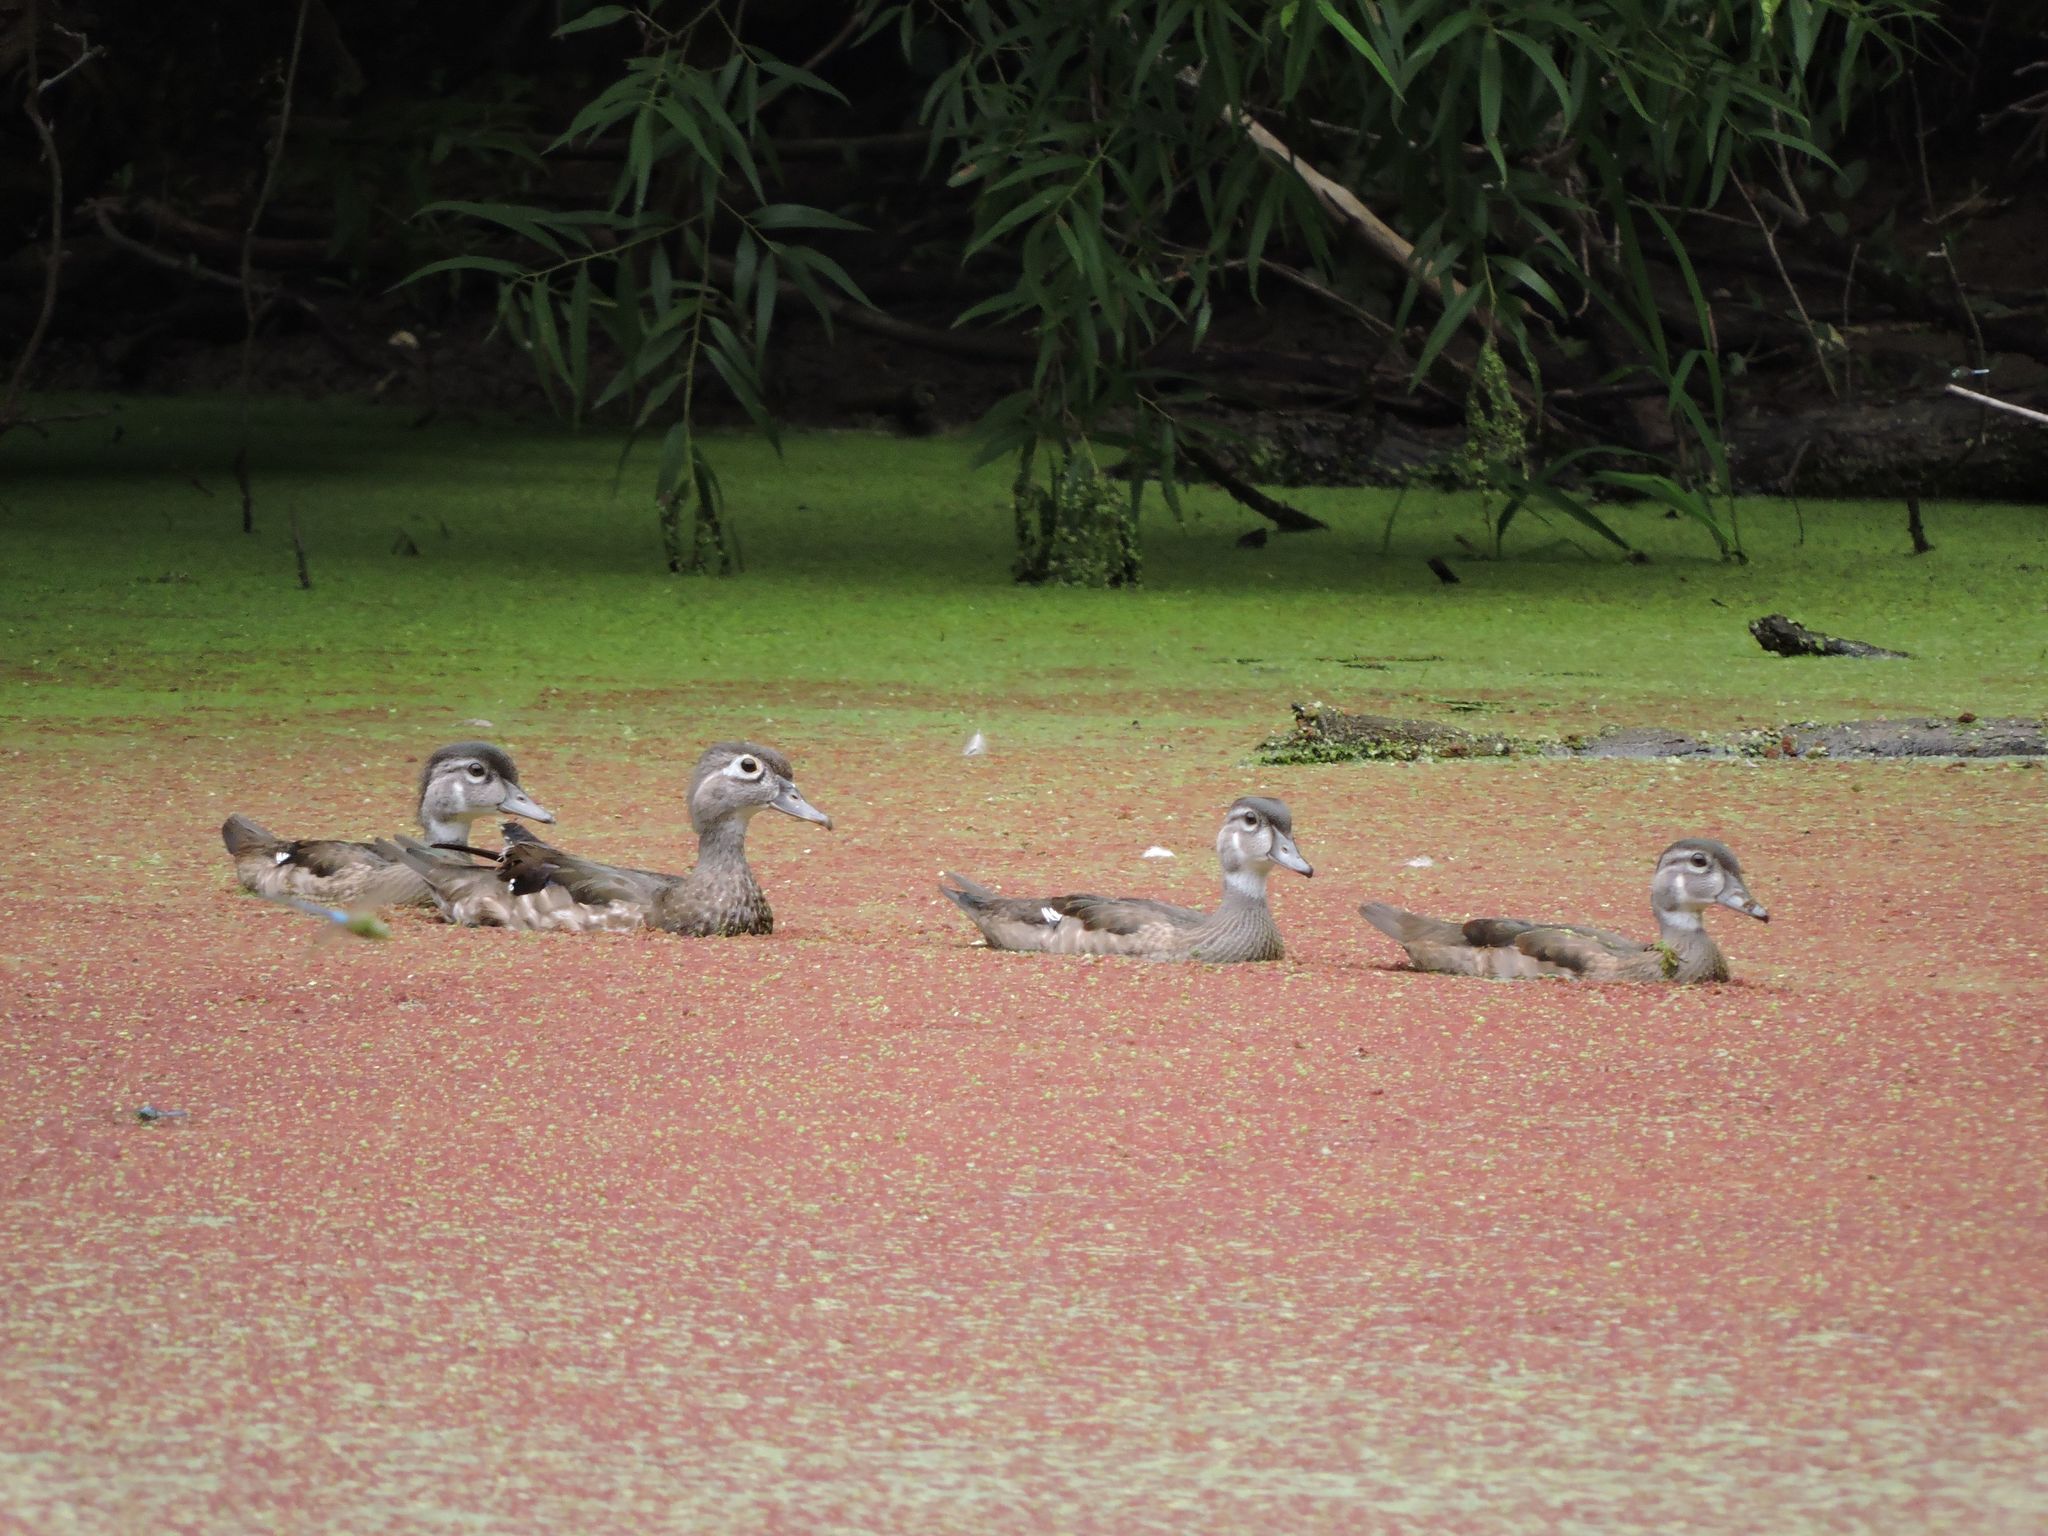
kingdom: Animalia
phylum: Chordata
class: Aves
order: Anseriformes
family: Anatidae
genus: Aix
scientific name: Aix sponsa
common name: Wood duck
